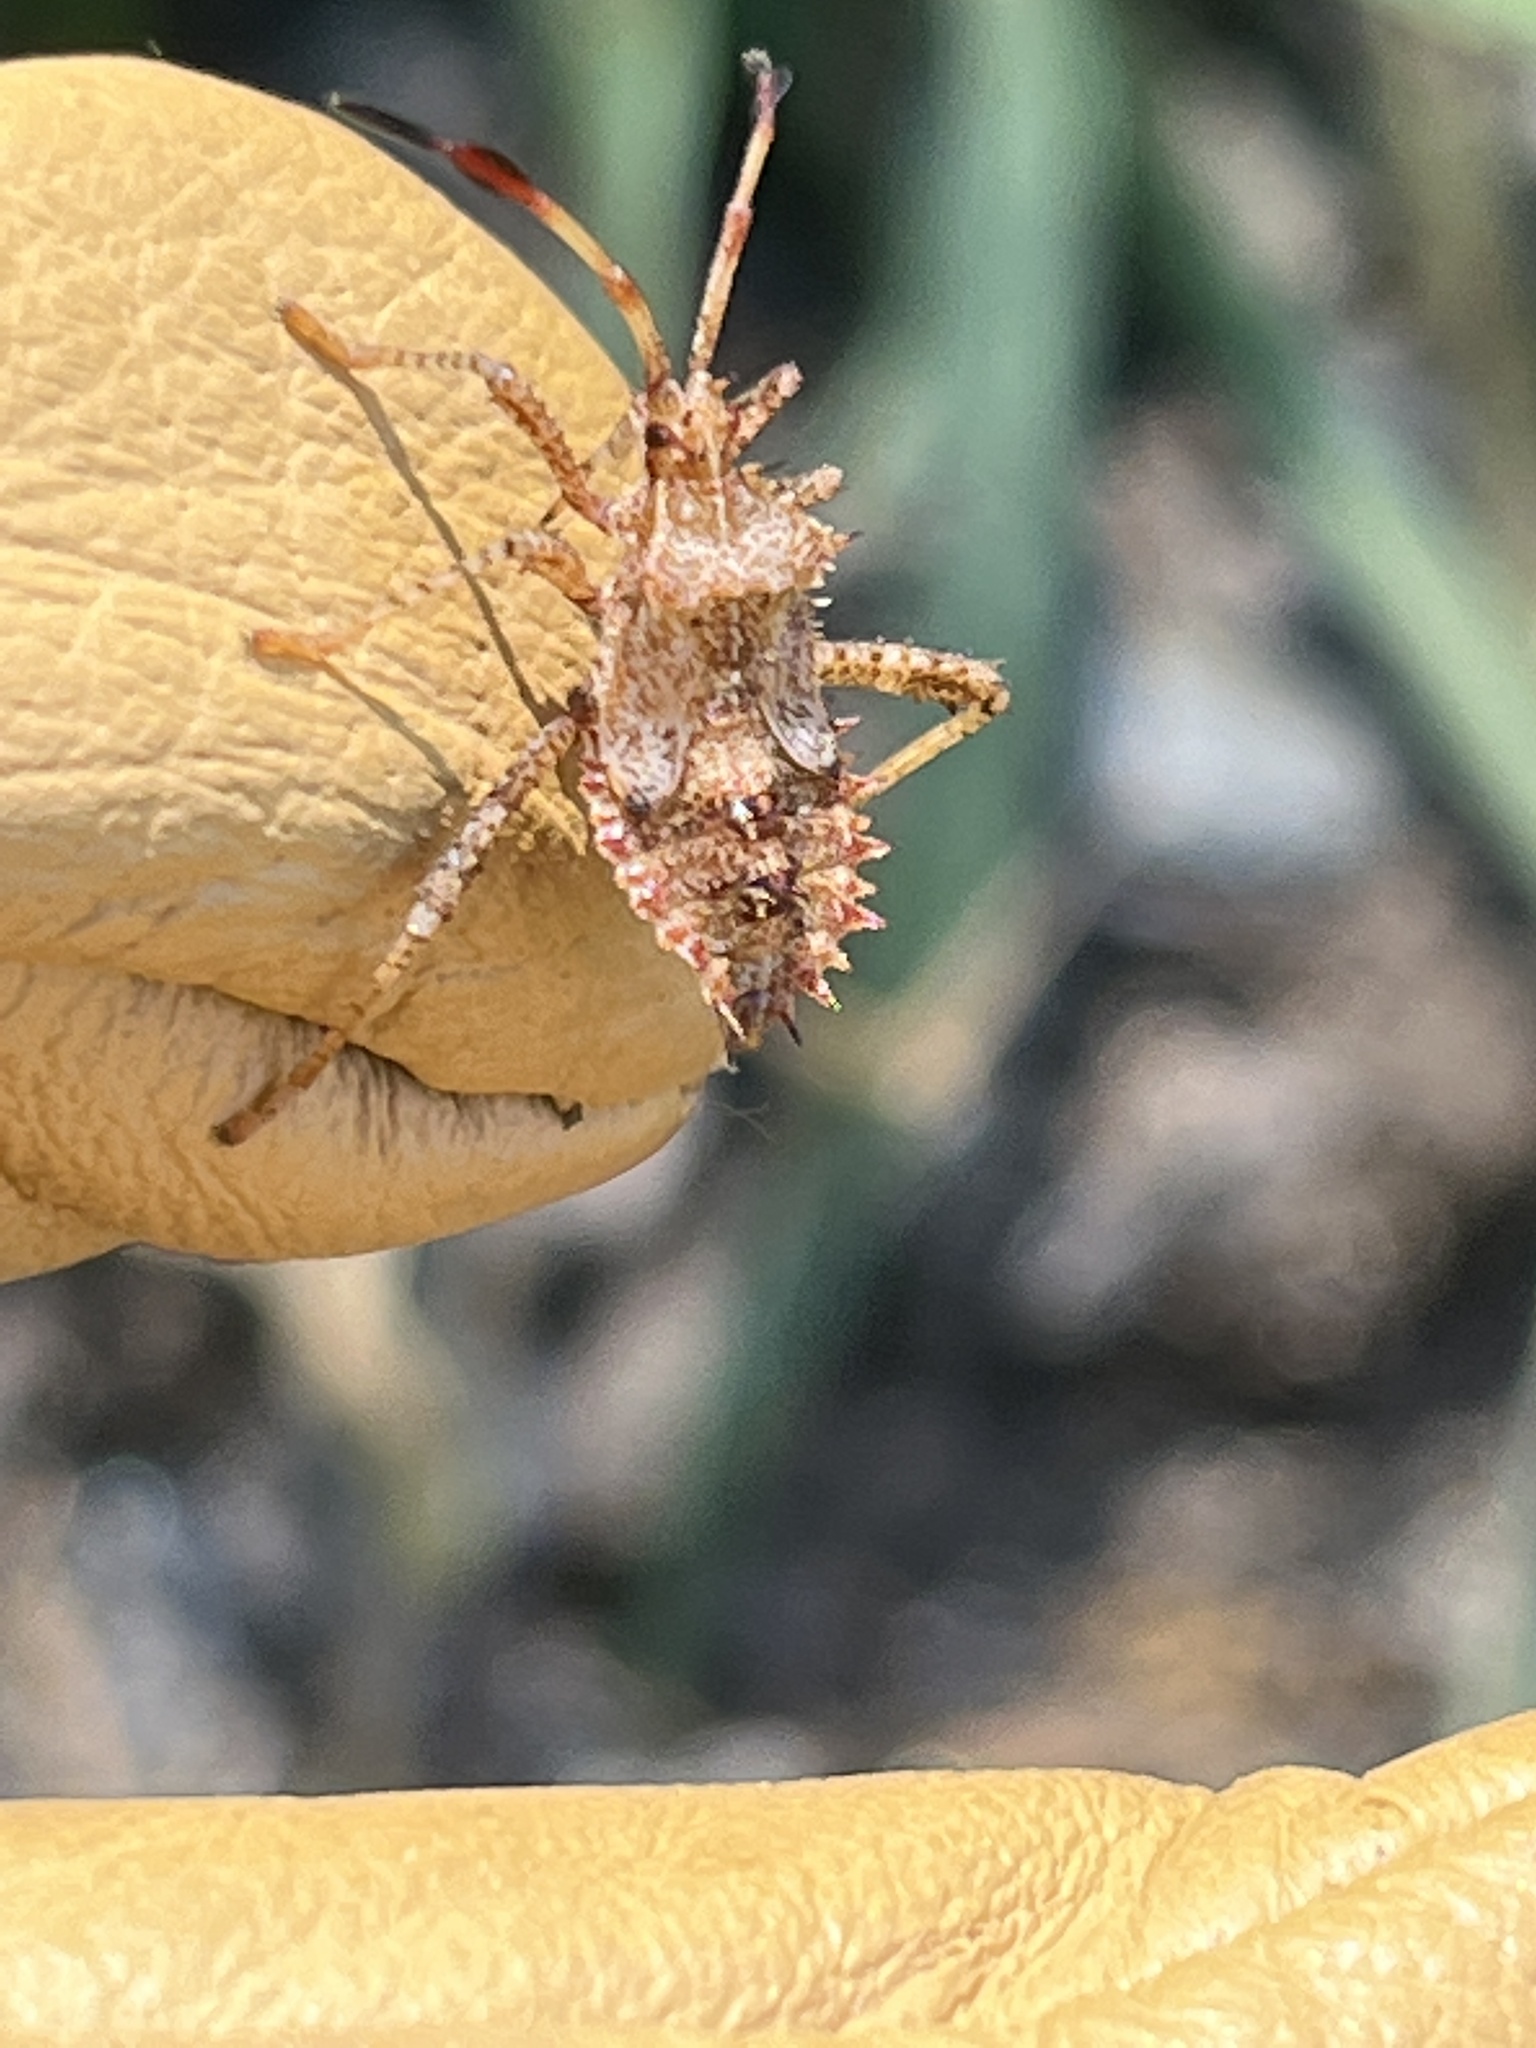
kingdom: Animalia
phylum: Arthropoda
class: Insecta
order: Hemiptera
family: Coreidae
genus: Euthochtha
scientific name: Euthochtha galeator
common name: Helmeted squash bug
